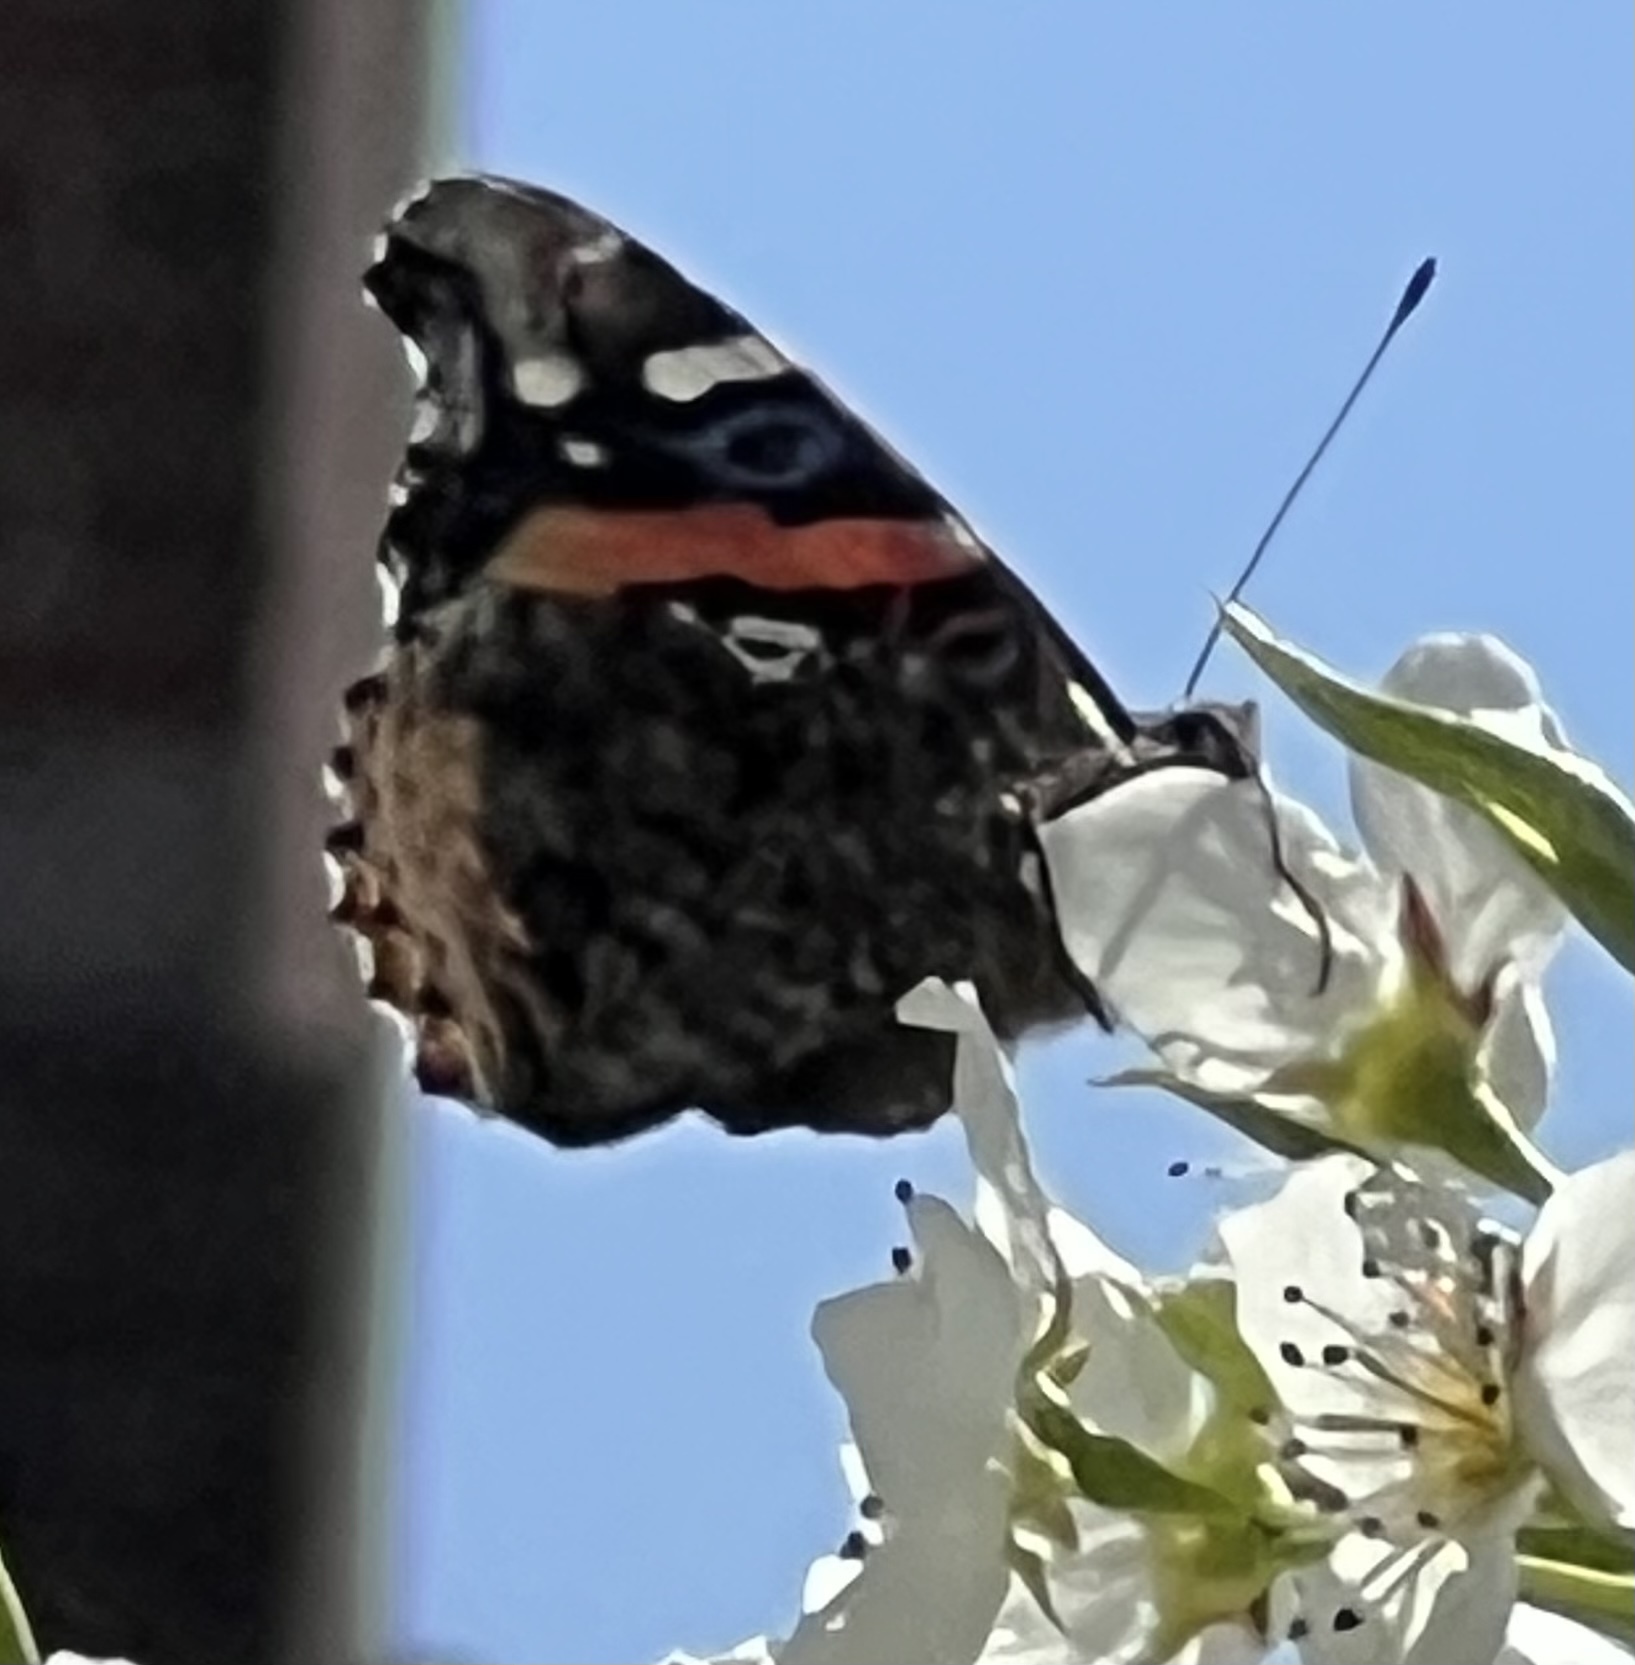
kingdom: Animalia
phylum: Arthropoda
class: Insecta
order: Lepidoptera
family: Nymphalidae
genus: Vanessa
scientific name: Vanessa atalanta
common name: Red admiral
